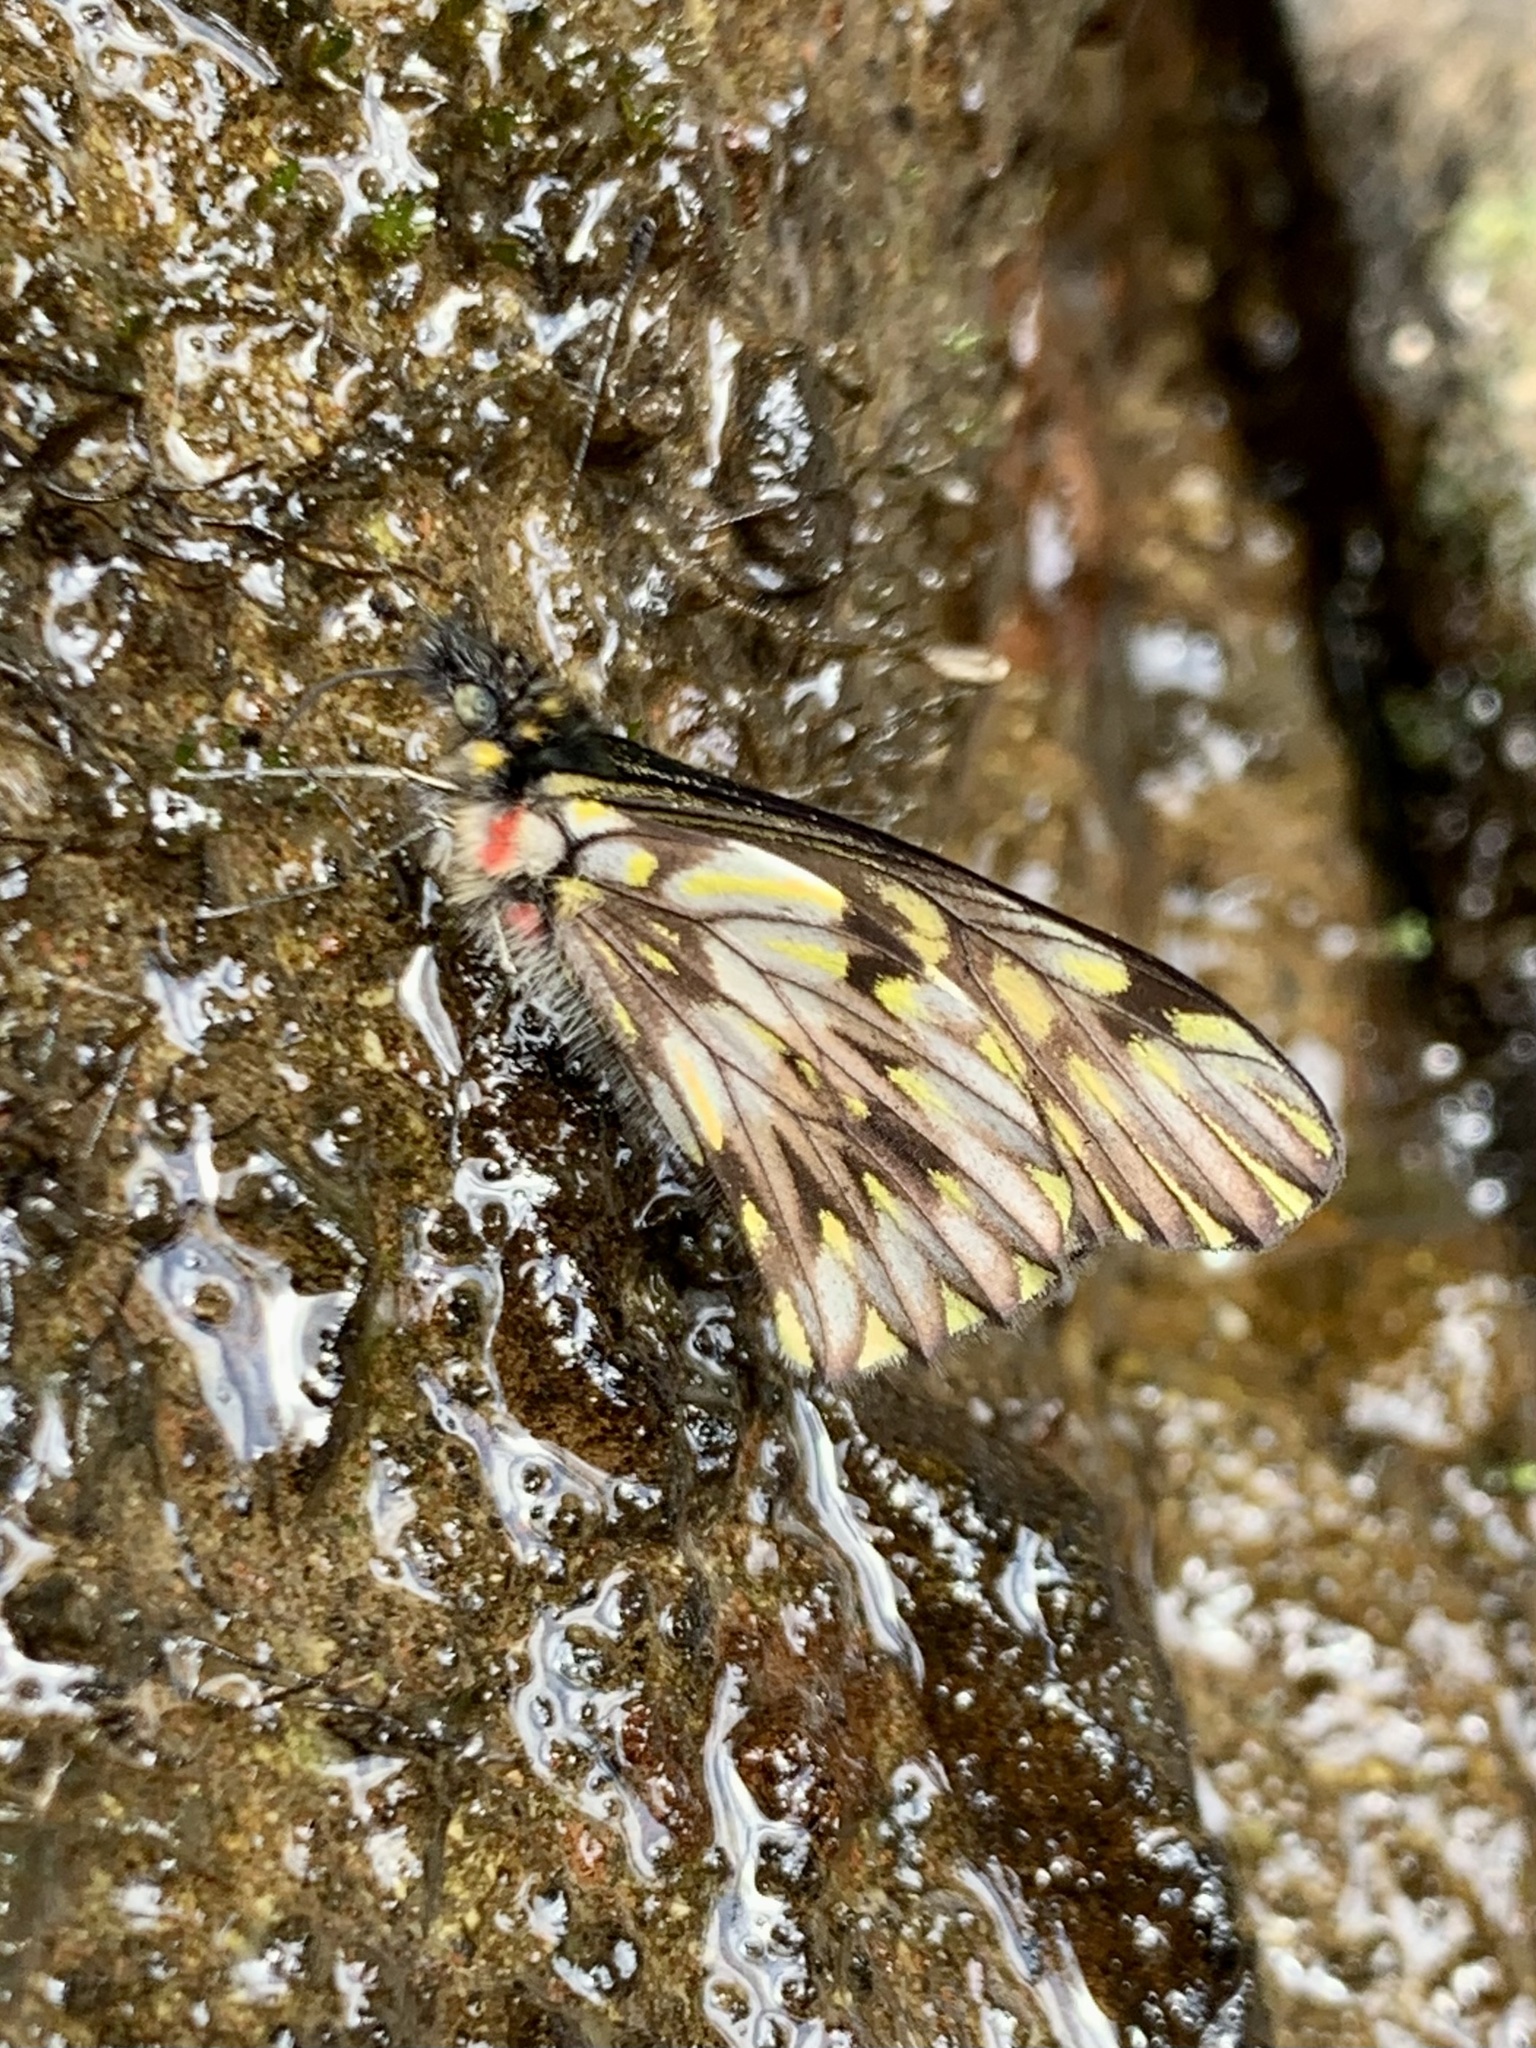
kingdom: Animalia
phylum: Arthropoda
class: Insecta
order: Lepidoptera
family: Pieridae
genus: Catasticta
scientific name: Catasticta ferra
